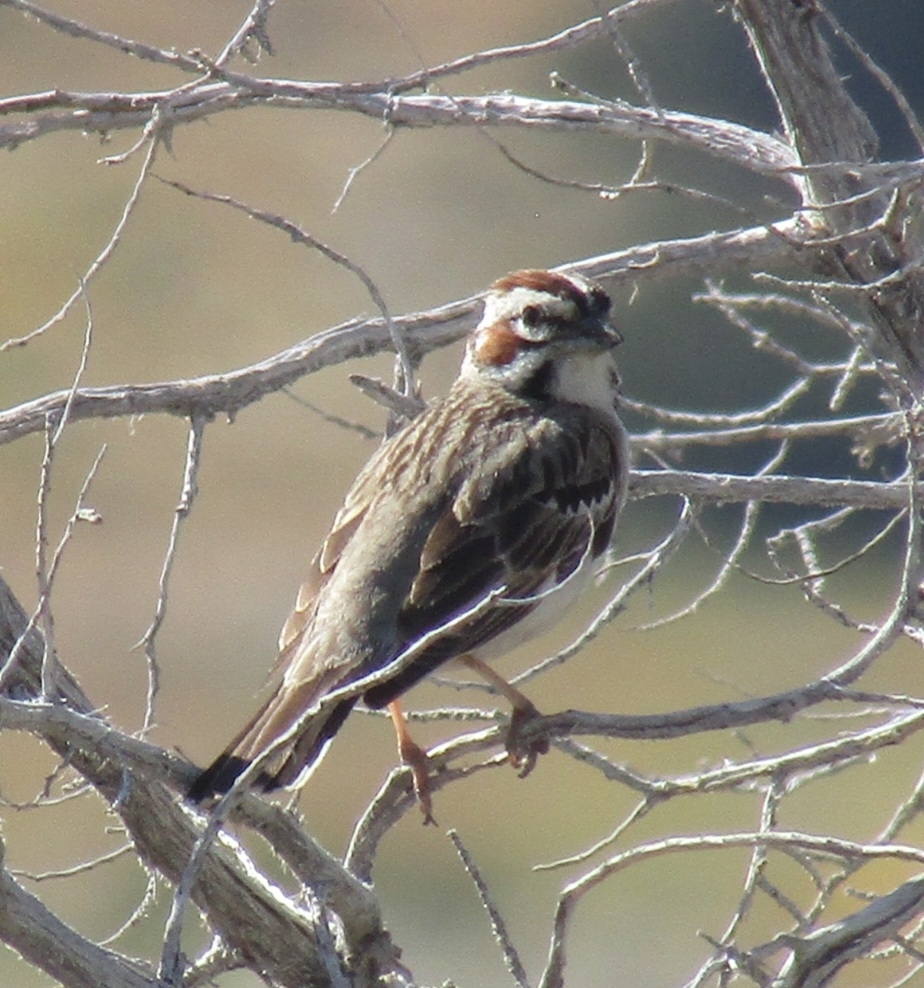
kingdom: Animalia
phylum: Chordata
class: Aves
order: Passeriformes
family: Passerellidae
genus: Chondestes
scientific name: Chondestes grammacus
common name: Lark sparrow
